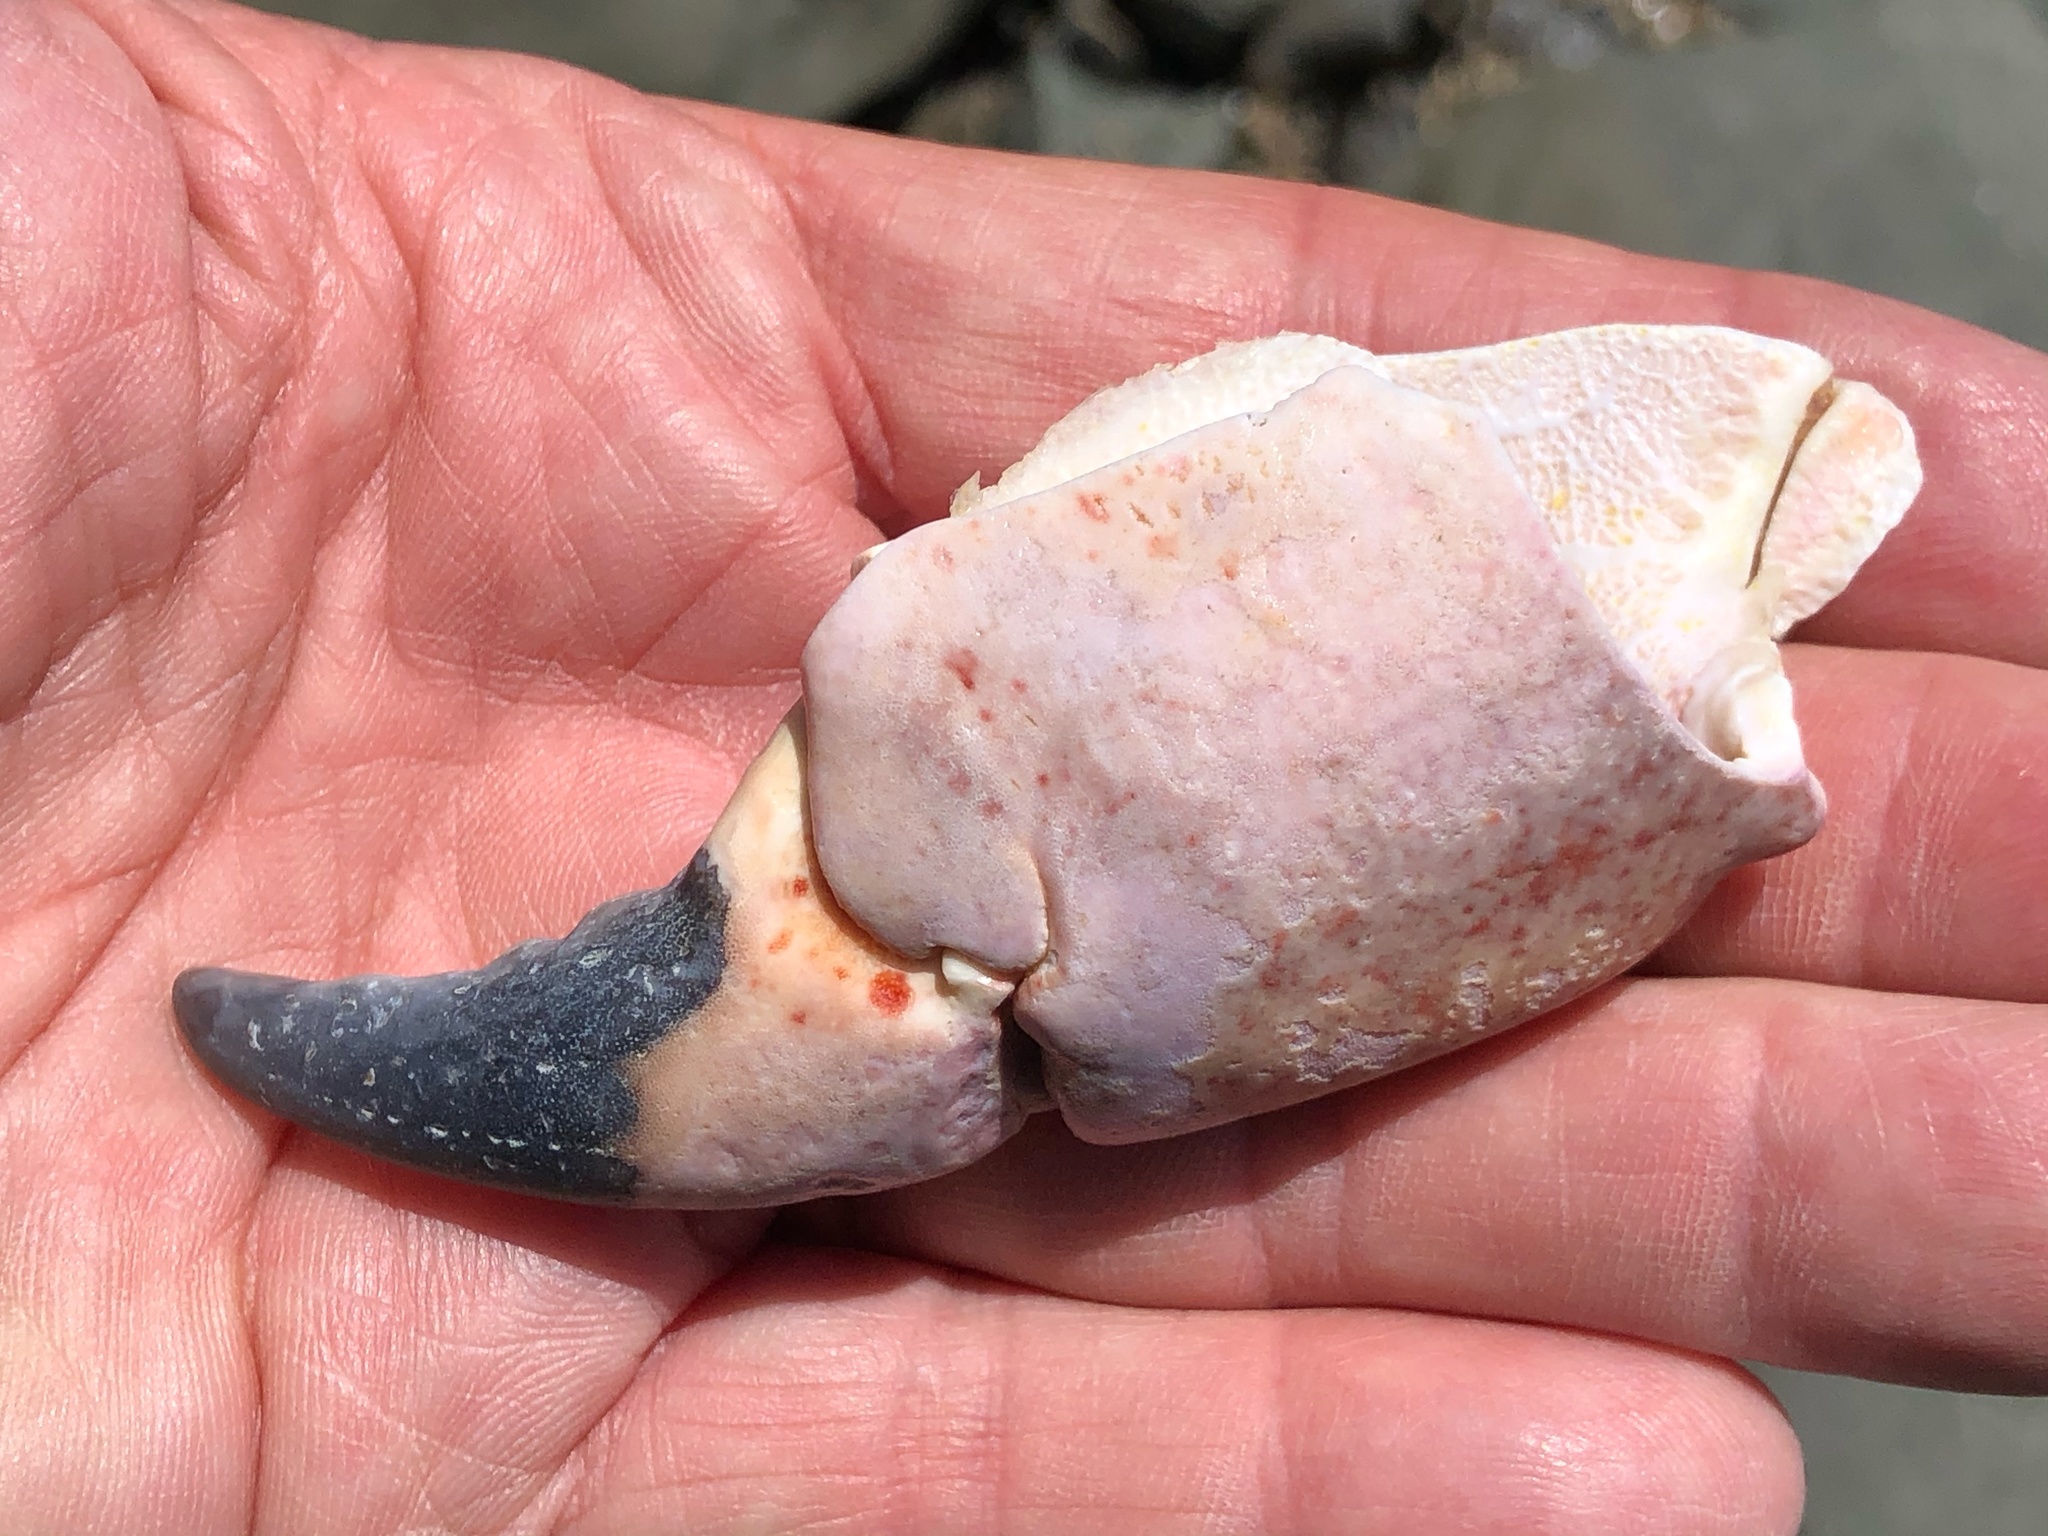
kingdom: Animalia
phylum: Arthropoda
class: Malacostraca
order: Decapoda
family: Cancridae
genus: Romaleon
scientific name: Romaleon antennarium
